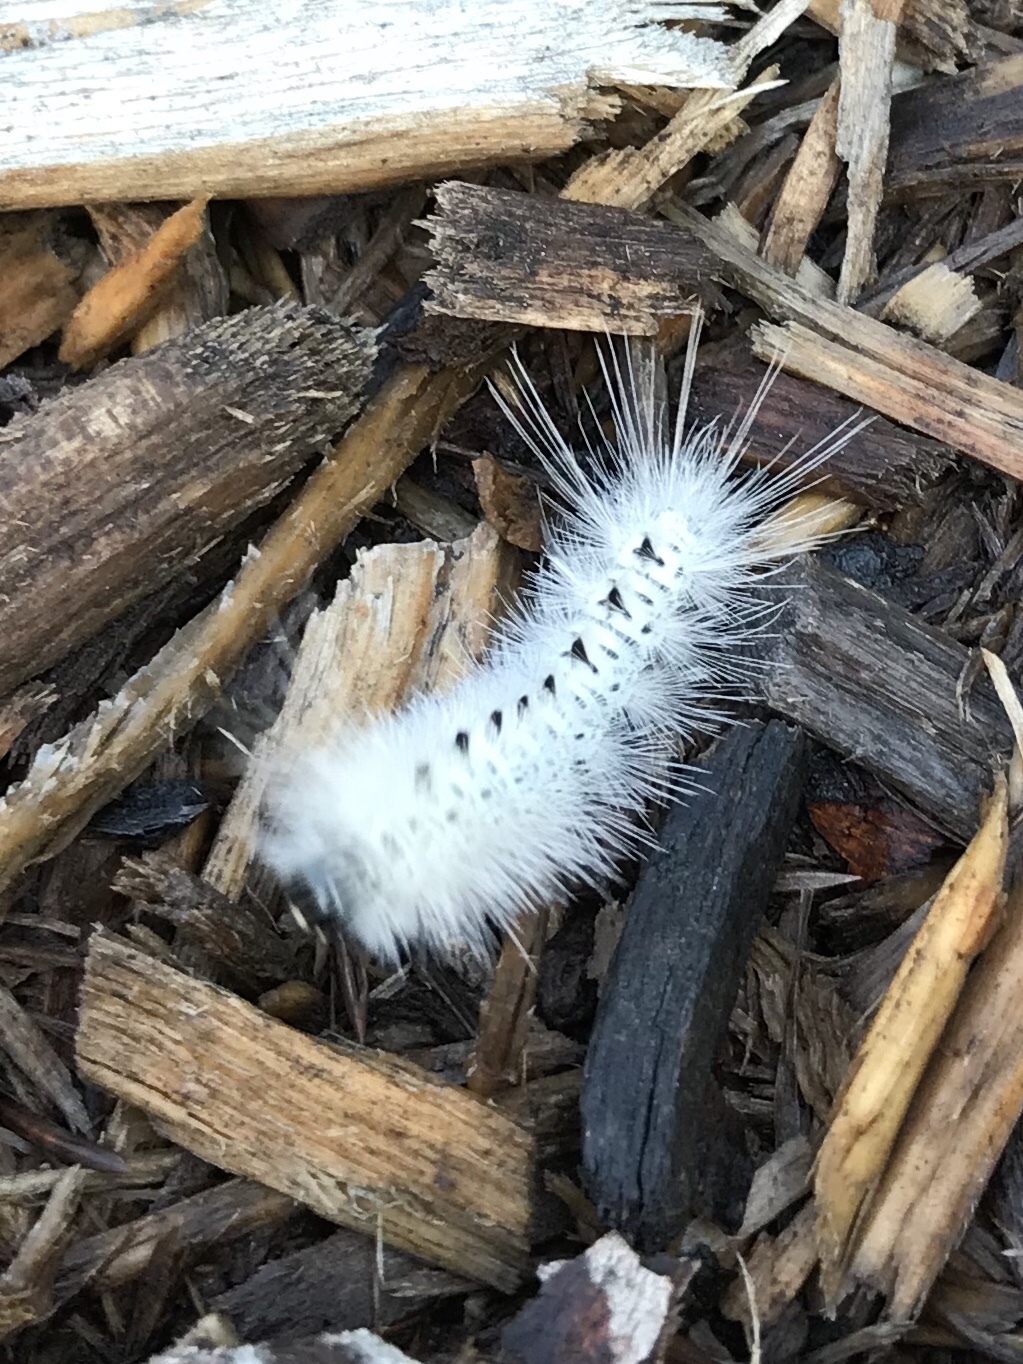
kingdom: Animalia
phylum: Arthropoda
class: Insecta
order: Lepidoptera
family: Erebidae
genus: Lophocampa
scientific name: Lophocampa caryae
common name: Hickory tussock moth
